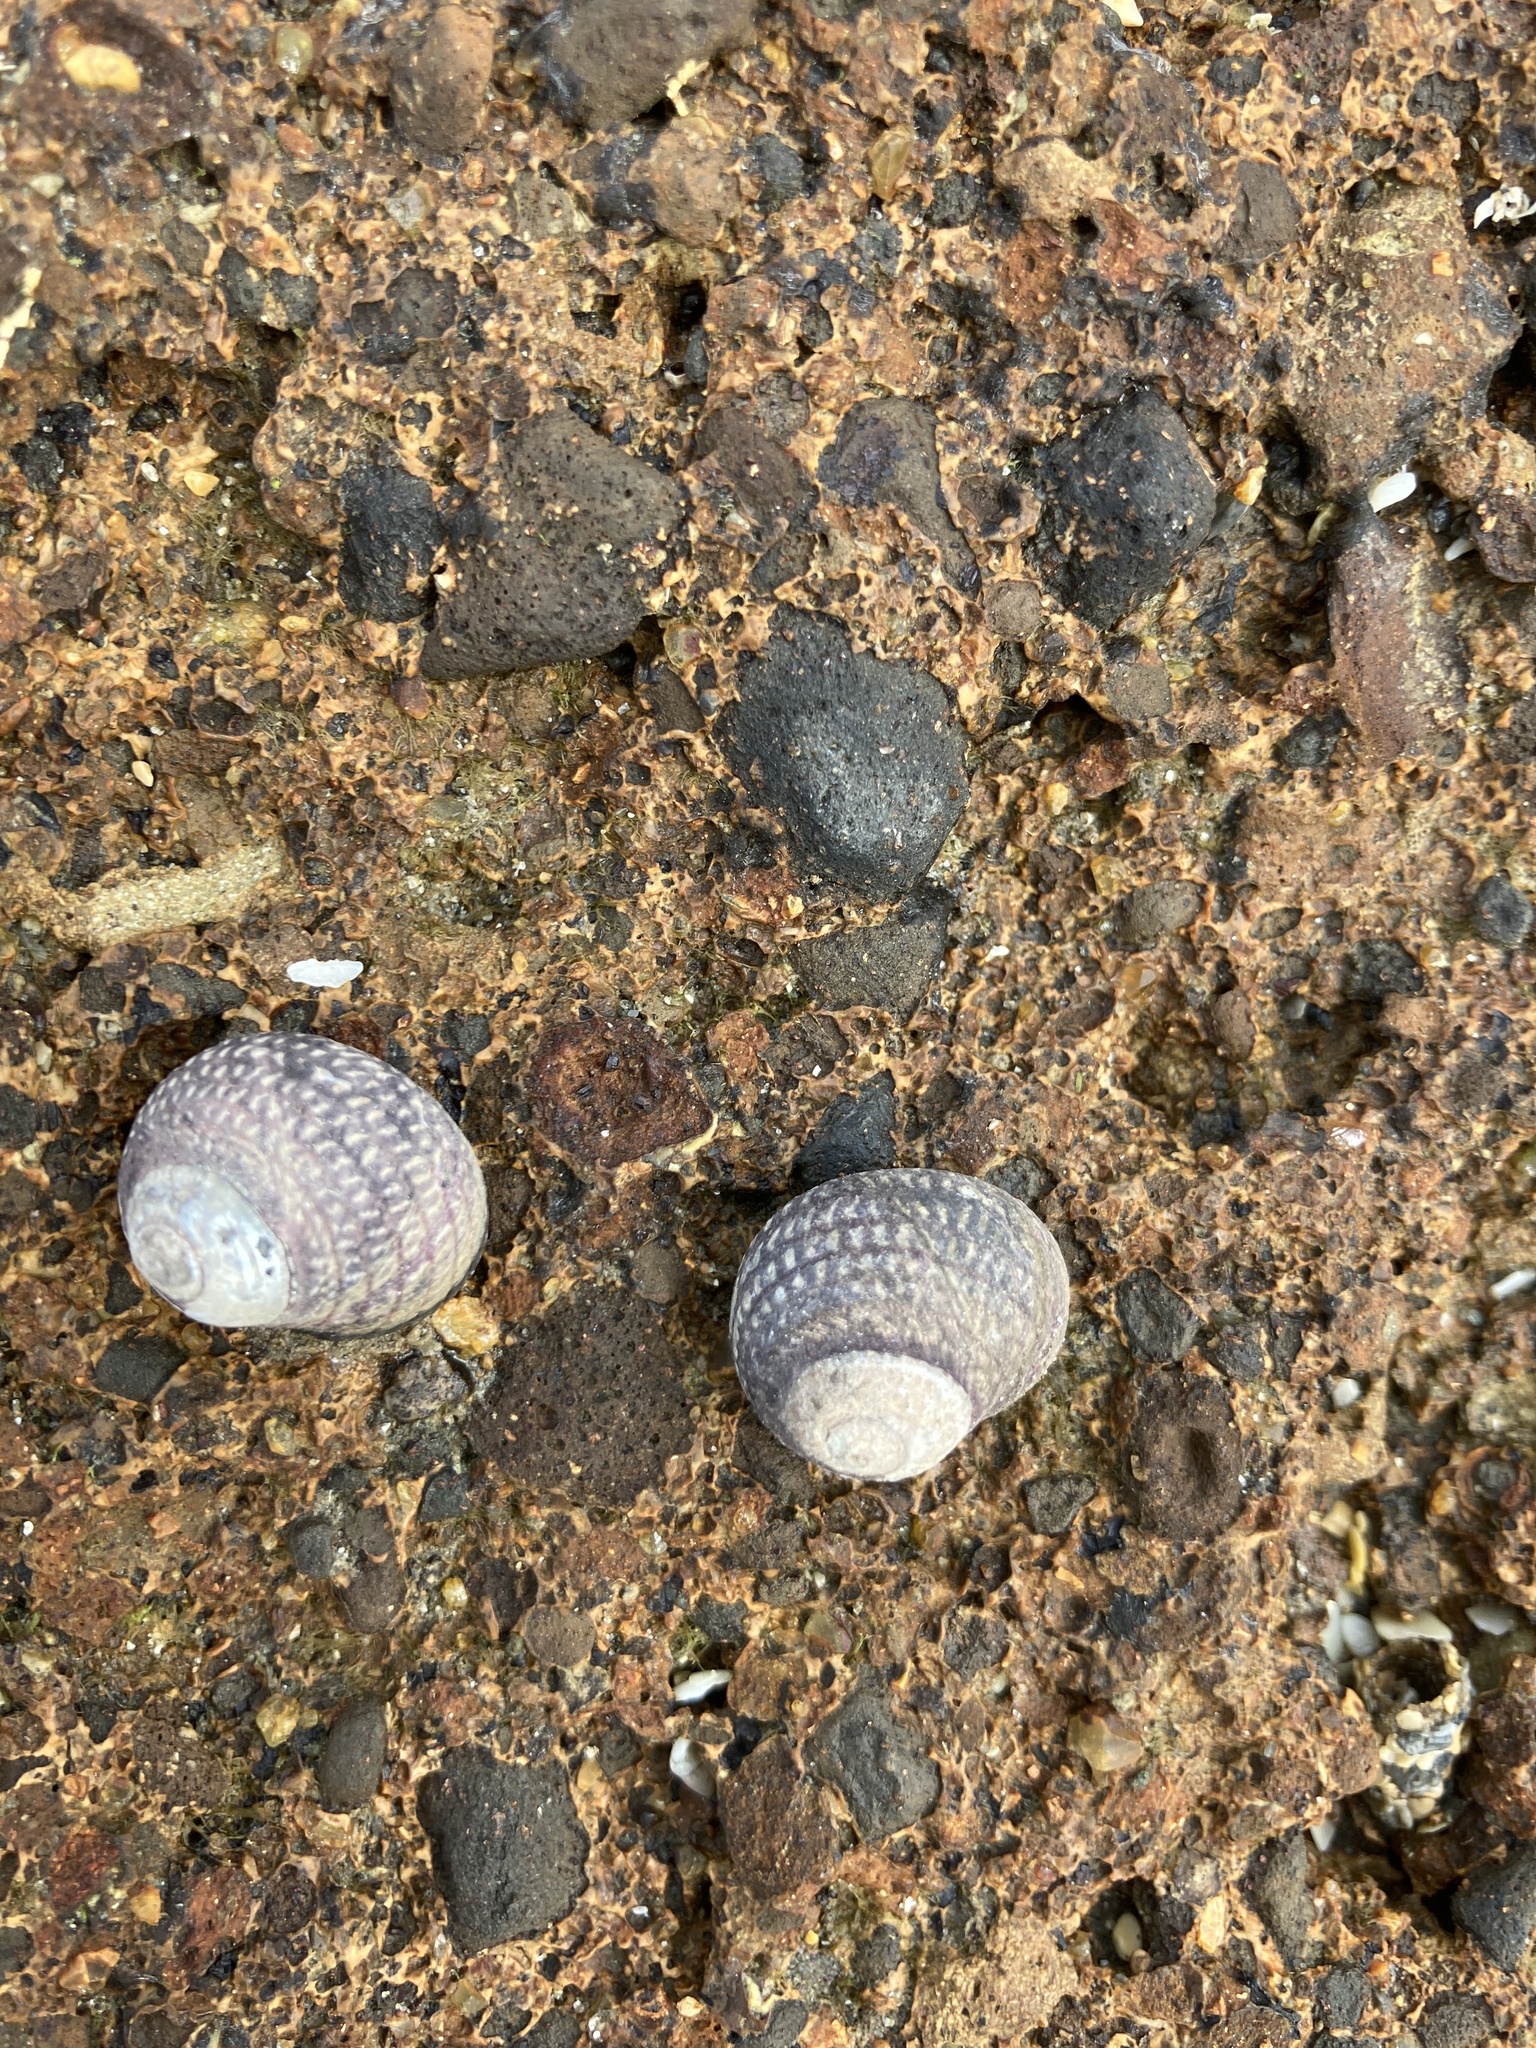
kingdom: Animalia
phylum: Mollusca
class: Gastropoda
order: Trochida
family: Trochidae
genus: Diloma
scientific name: Diloma aethiops
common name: Scorched monodont
